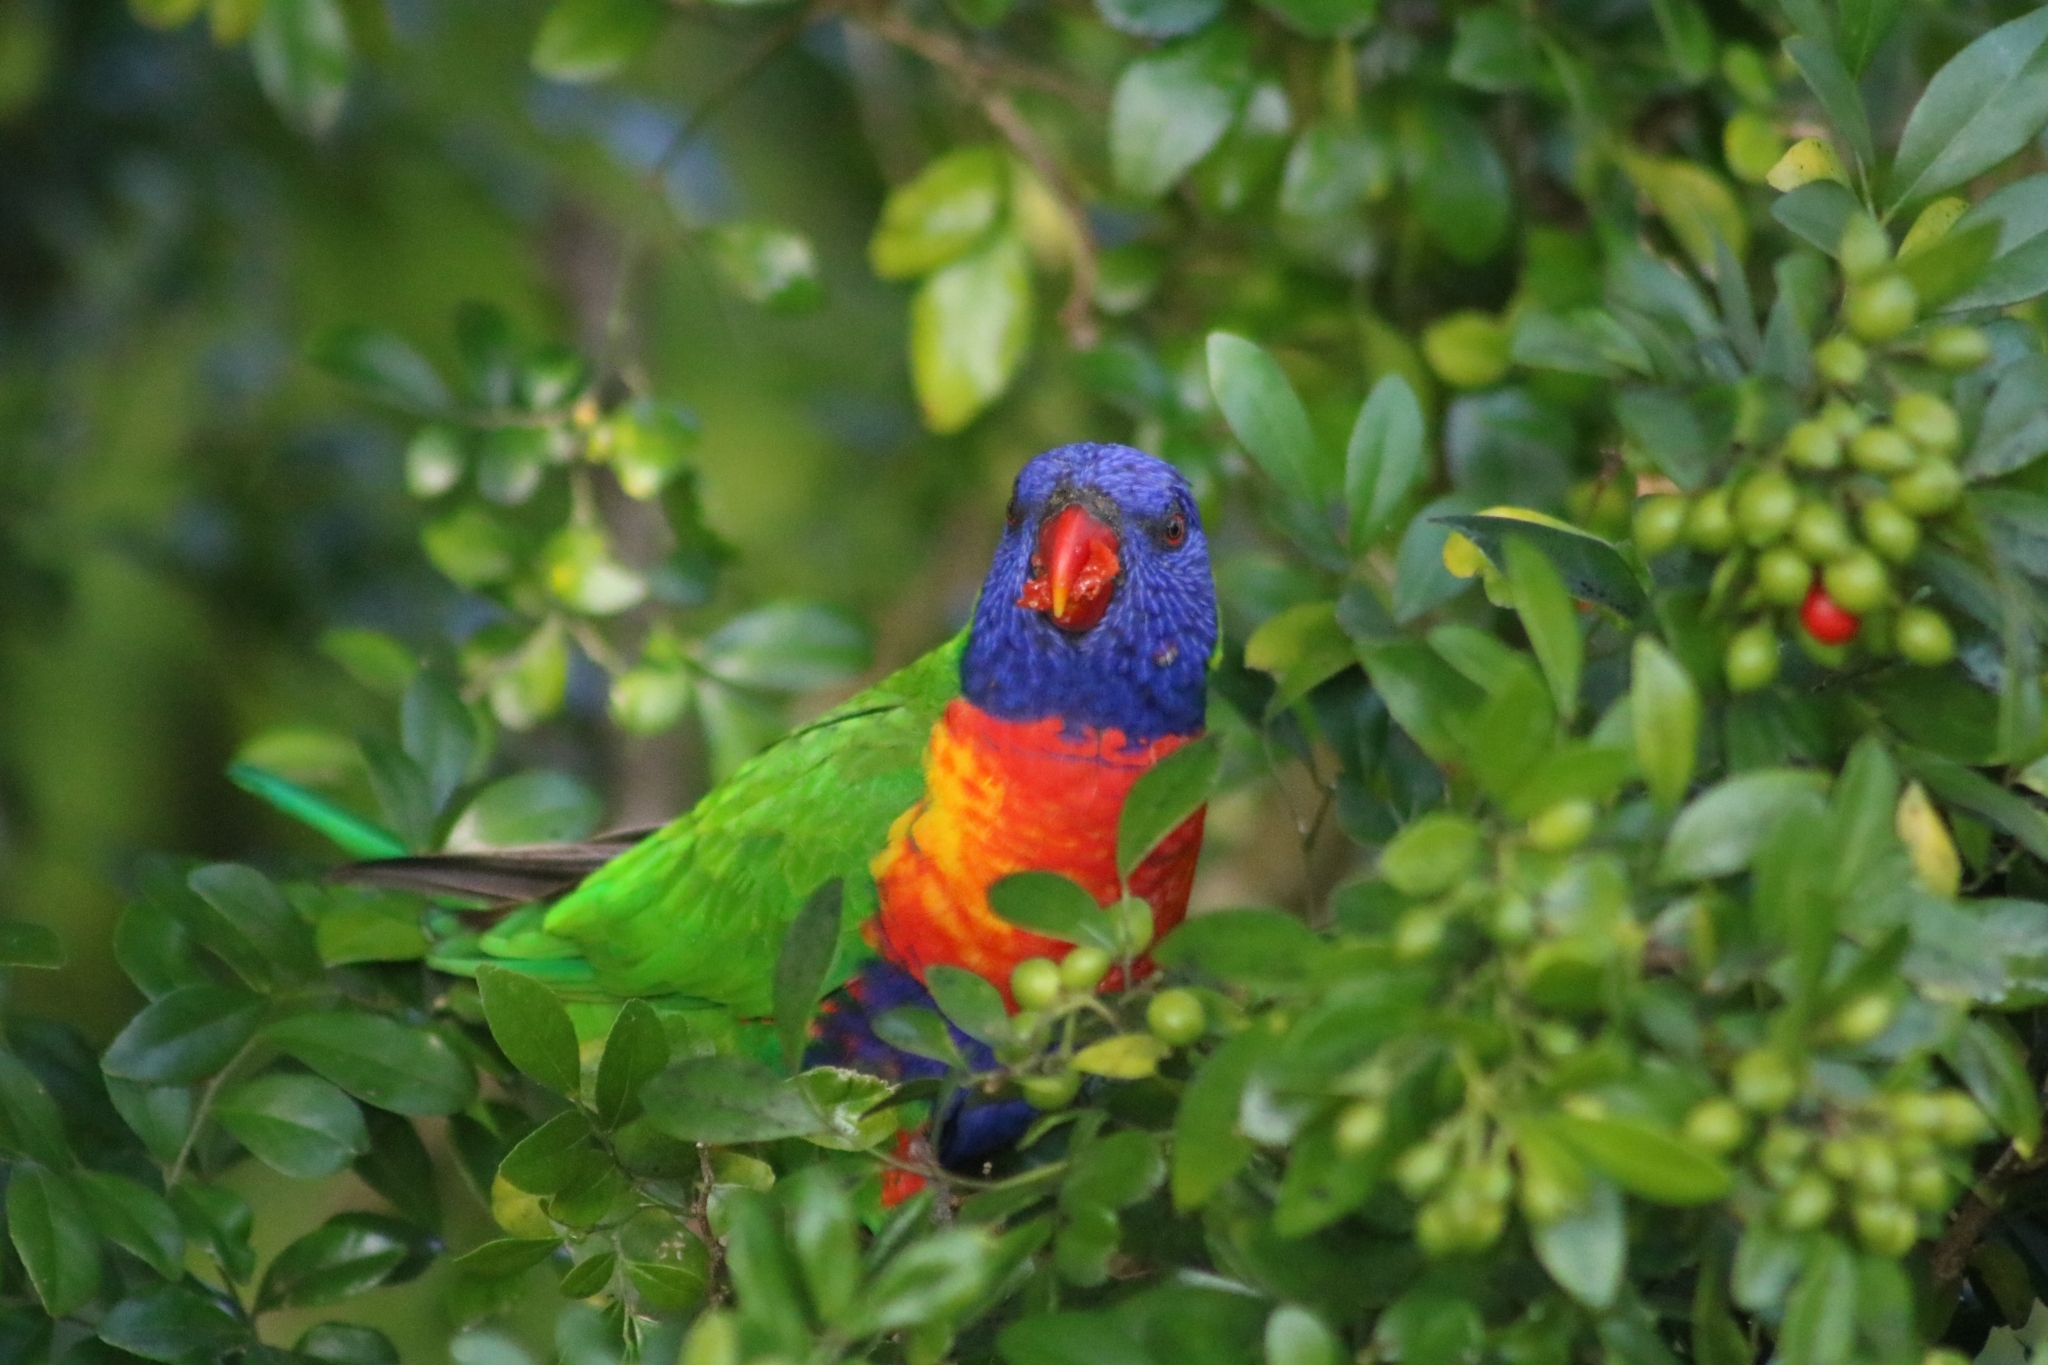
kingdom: Animalia
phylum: Chordata
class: Aves
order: Psittaciformes
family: Psittacidae
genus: Trichoglossus
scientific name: Trichoglossus haematodus
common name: Coconut lorikeet
